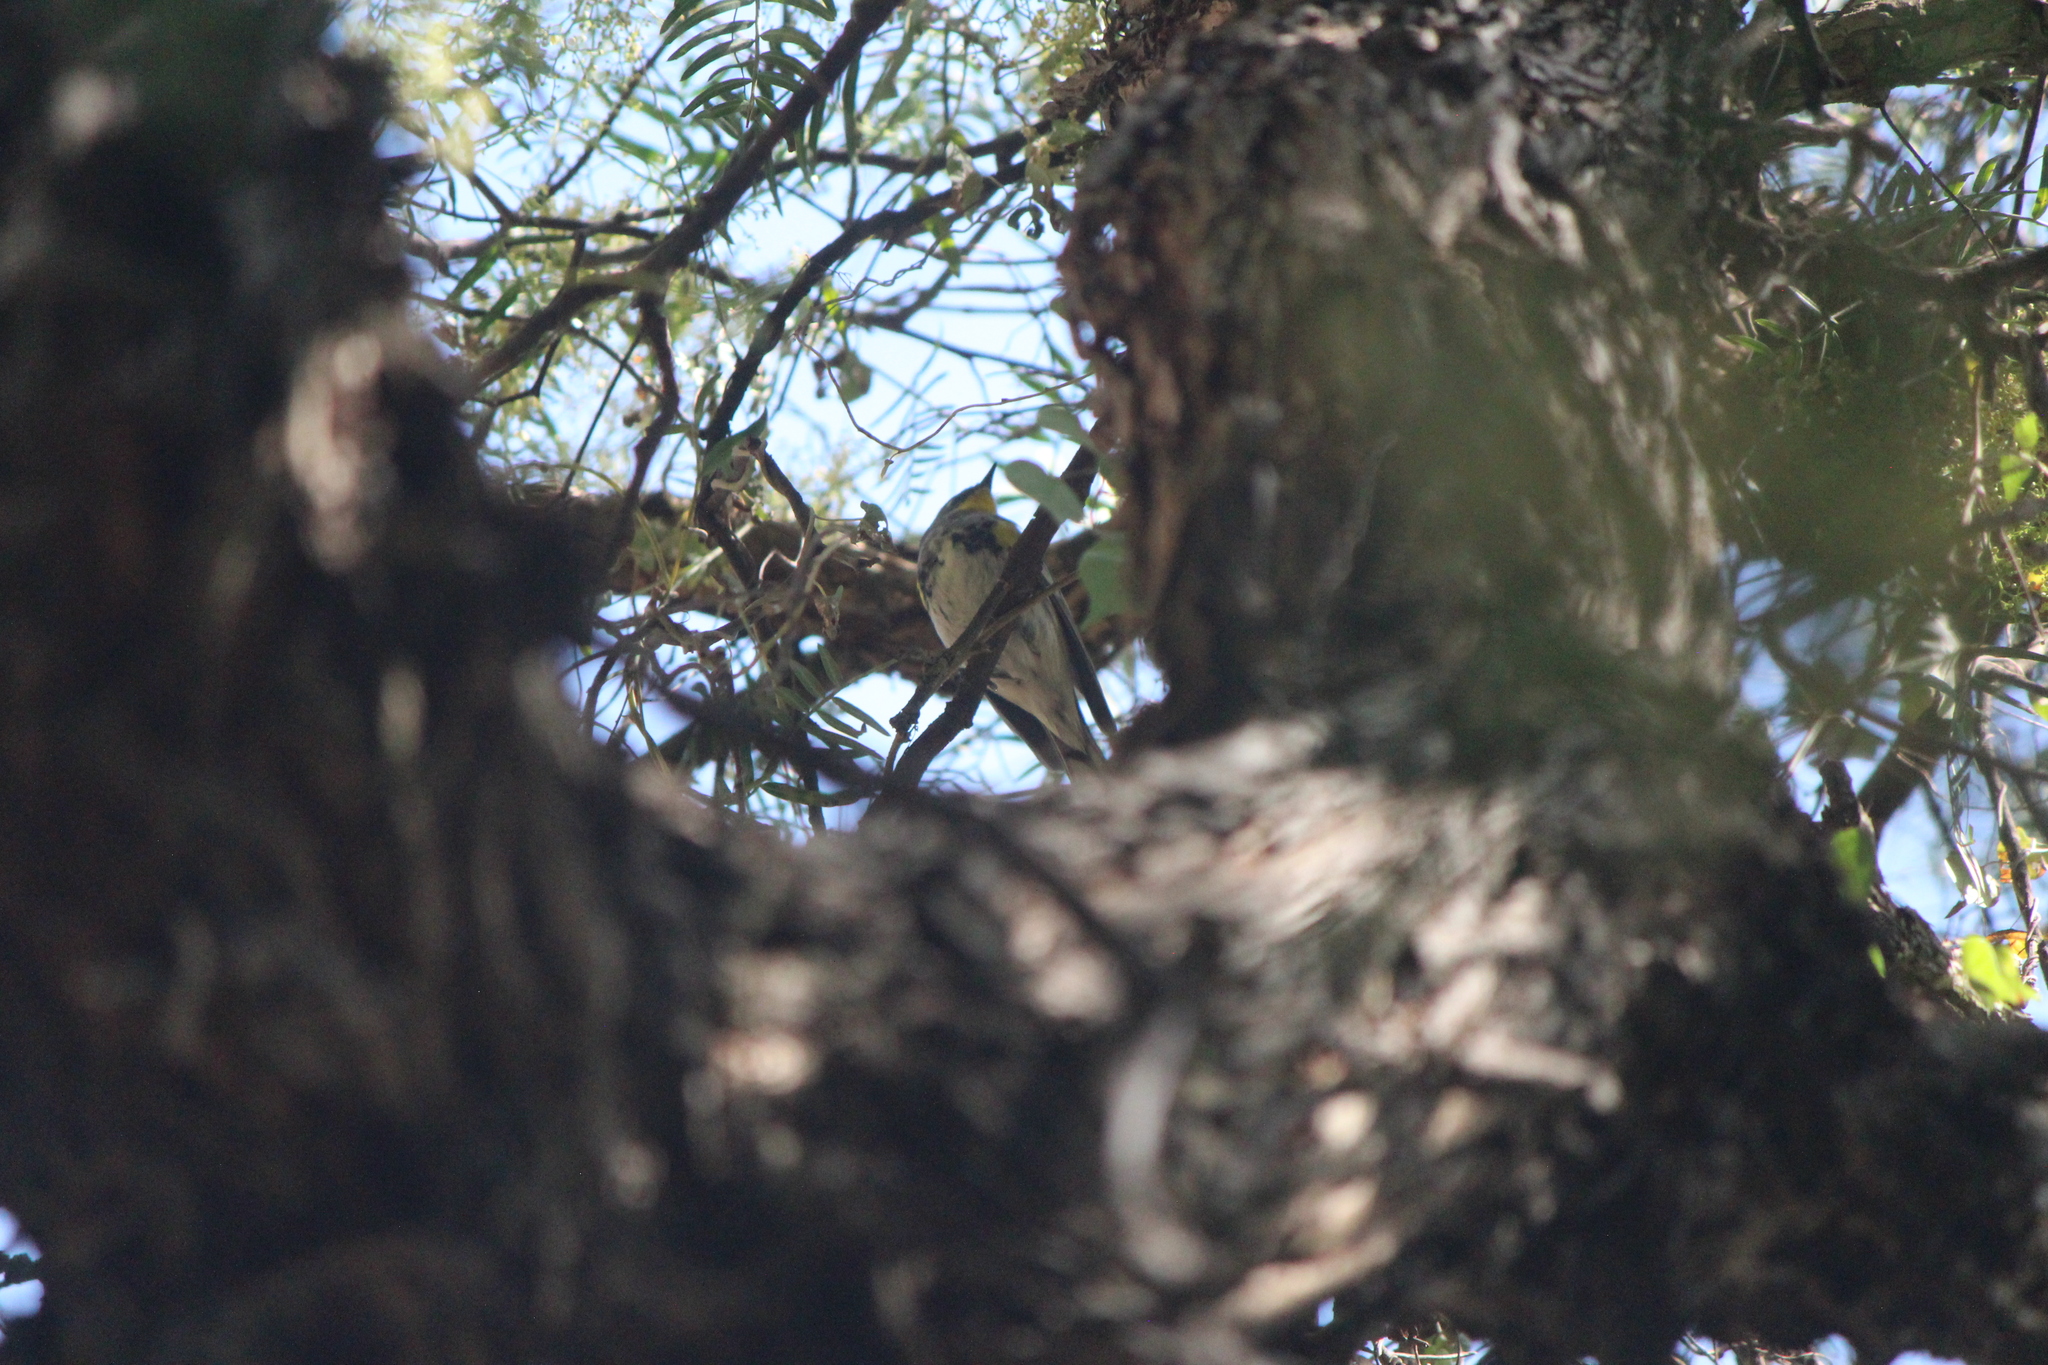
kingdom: Animalia
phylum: Chordata
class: Aves
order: Passeriformes
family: Parulidae
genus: Setophaga
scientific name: Setophaga coronata
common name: Myrtle warbler
